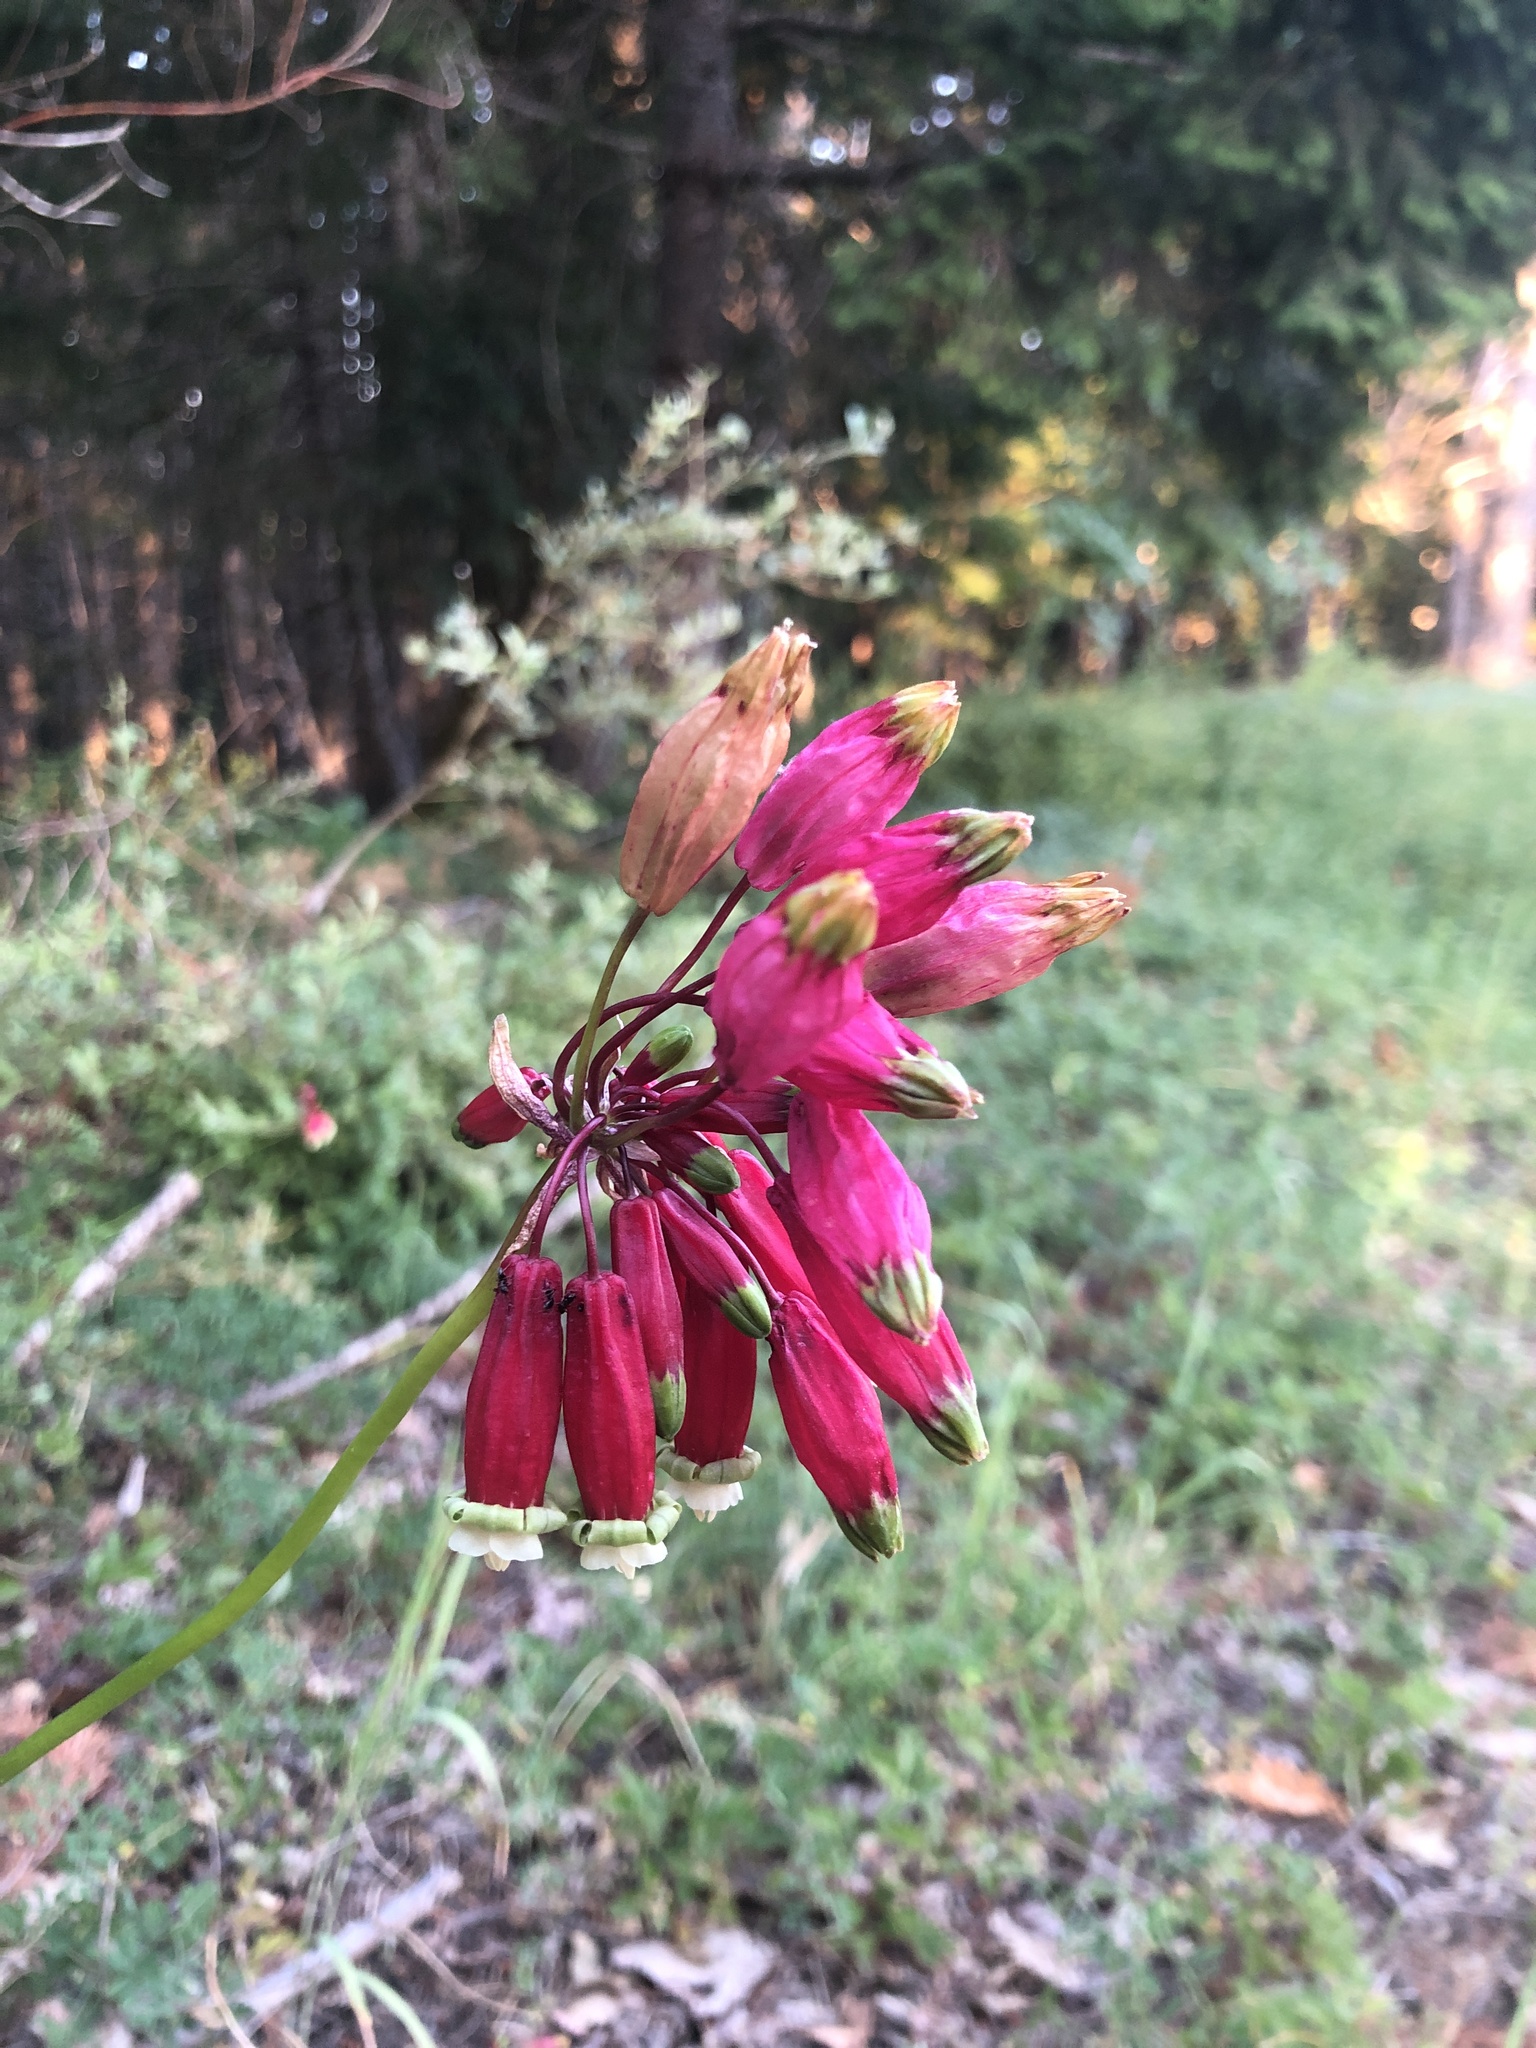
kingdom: Plantae
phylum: Tracheophyta
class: Liliopsida
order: Asparagales
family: Asparagaceae
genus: Dichelostemma
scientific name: Dichelostemma ida-maia
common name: Firecracker-flower
